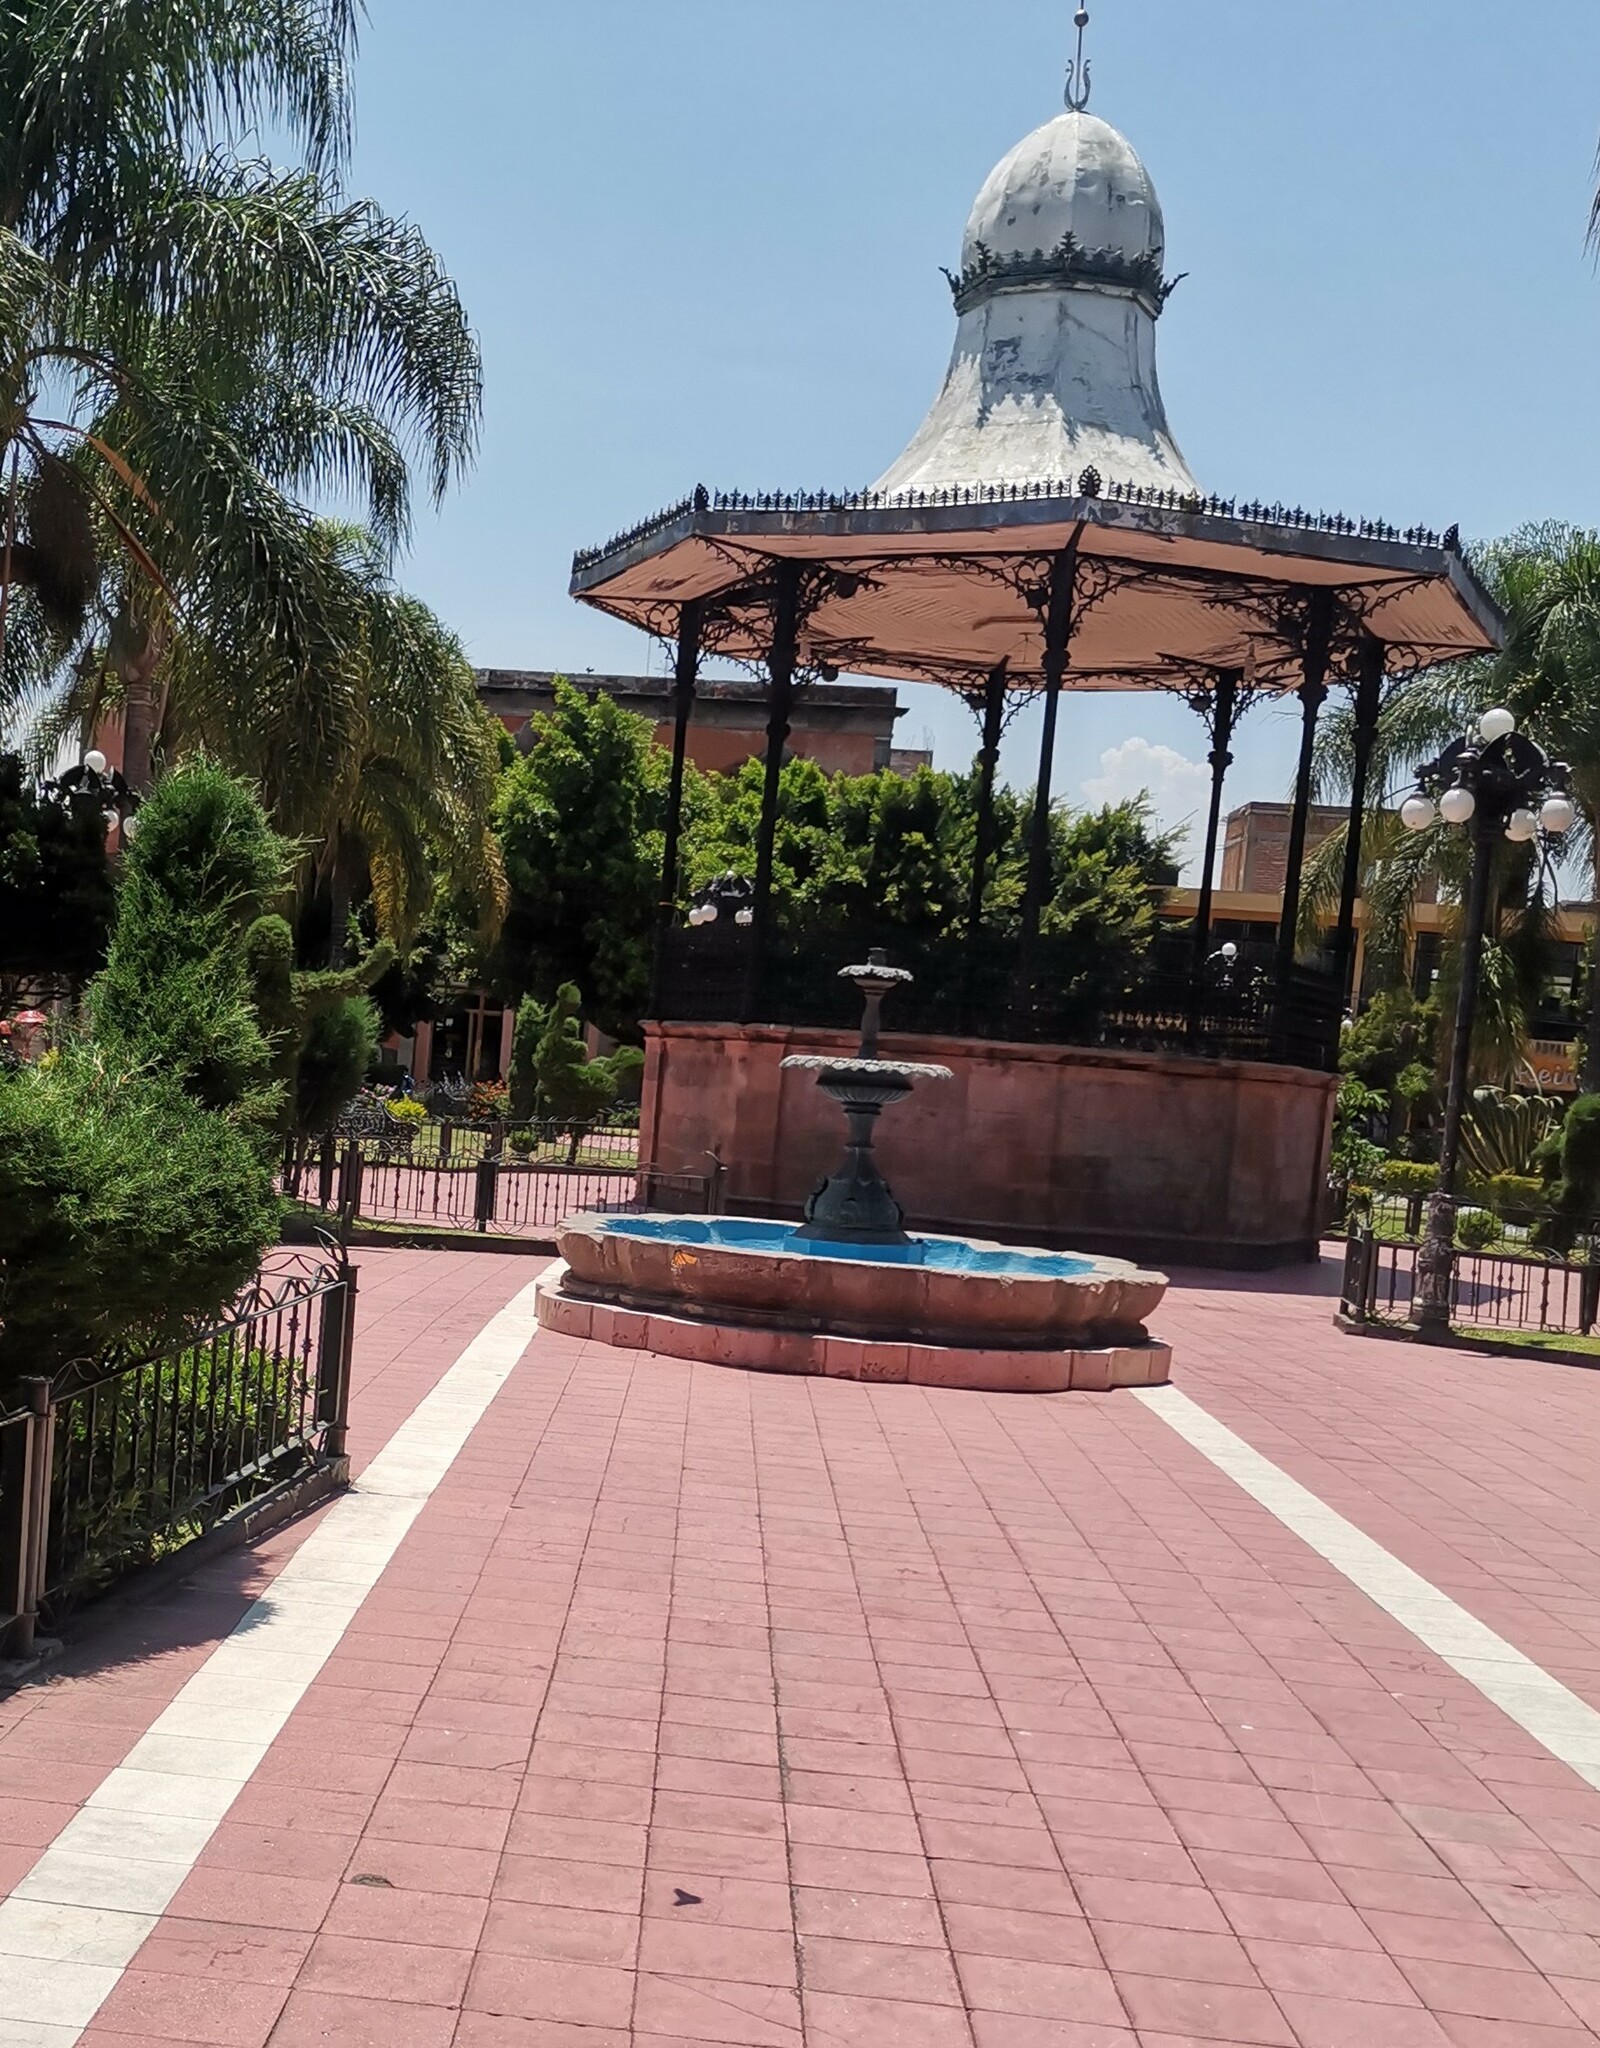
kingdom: Animalia
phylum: Arthropoda
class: Insecta
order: Lepidoptera
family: Nymphalidae
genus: Danaus
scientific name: Danaus plexippus
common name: Monarch
